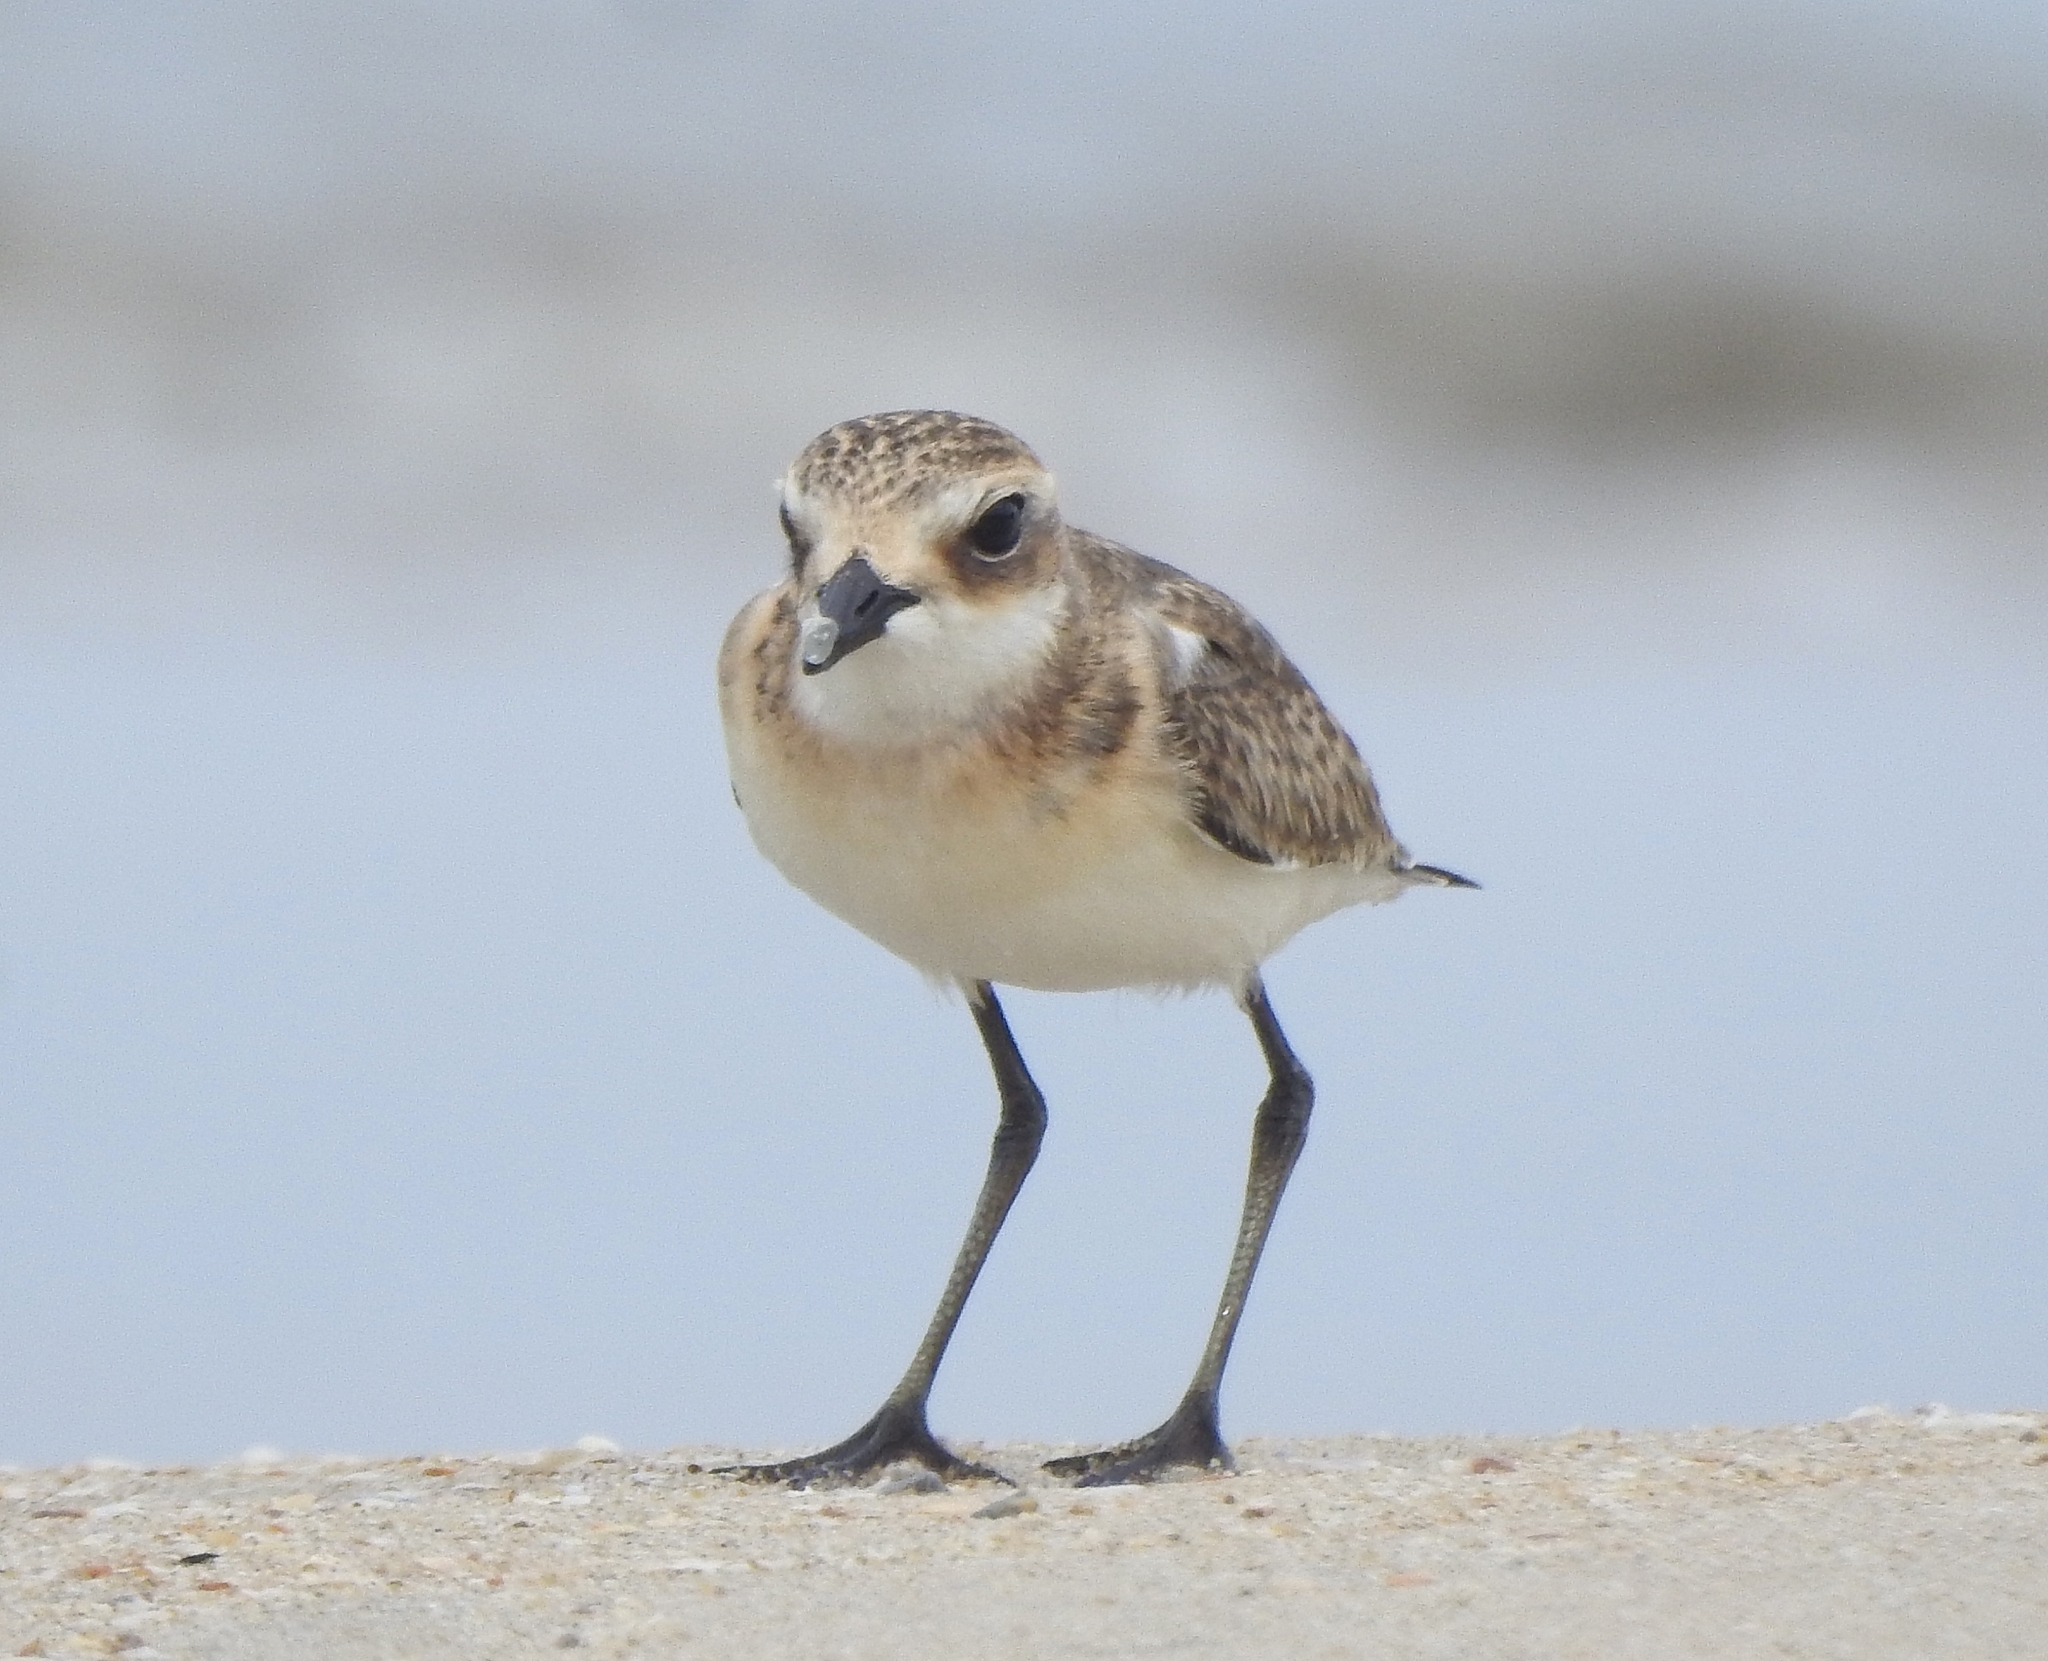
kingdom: Animalia
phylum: Chordata
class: Aves
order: Charadriiformes
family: Charadriidae
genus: Anarhynchus
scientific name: Anarhynchus
